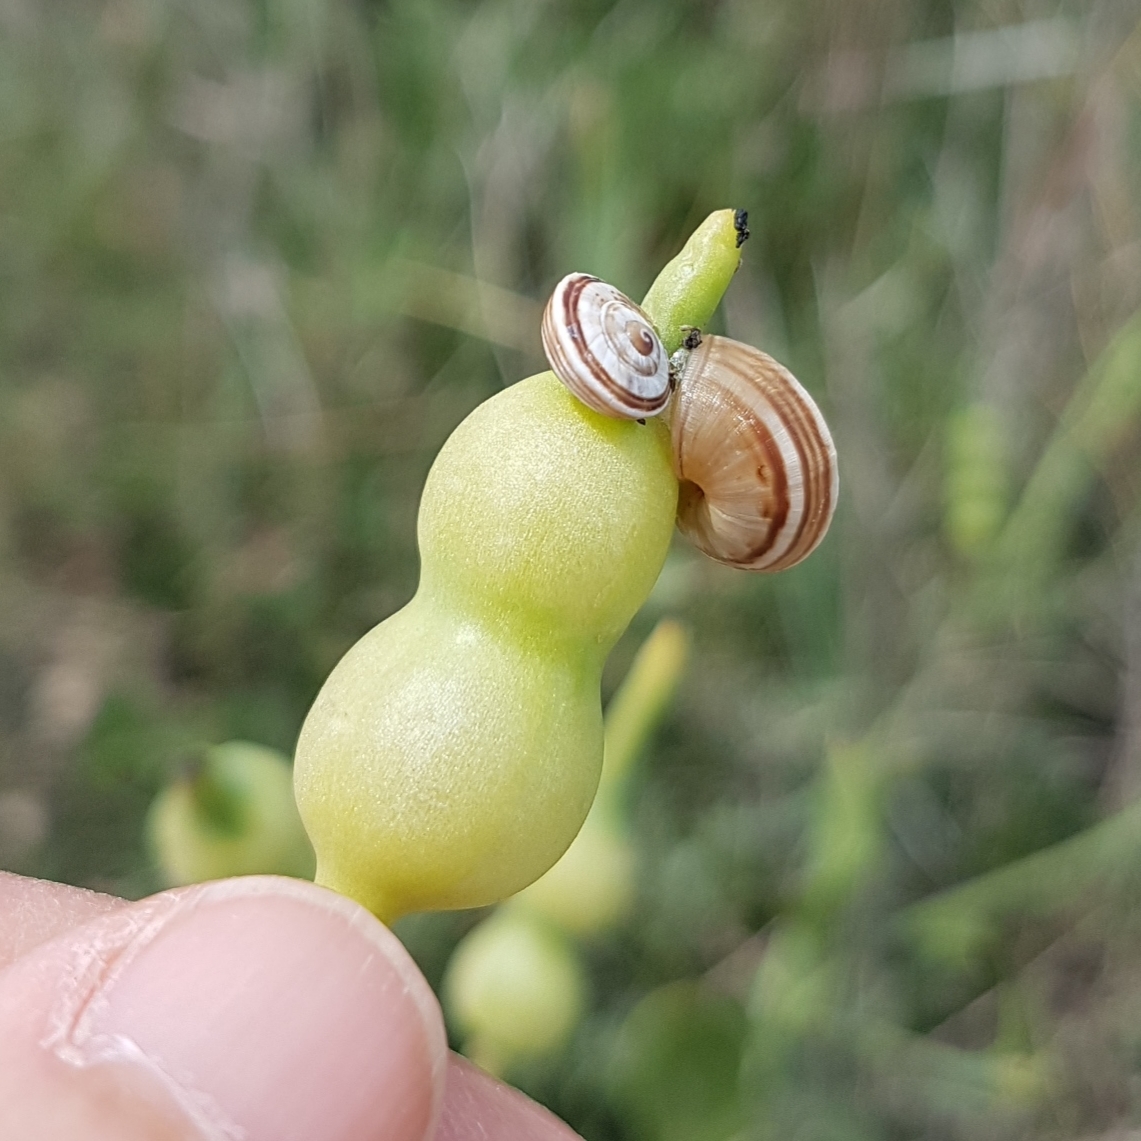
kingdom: Animalia
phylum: Mollusca
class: Gastropoda
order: Stylommatophora
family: Helicidae
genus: Theba
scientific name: Theba pisana
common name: White snail
